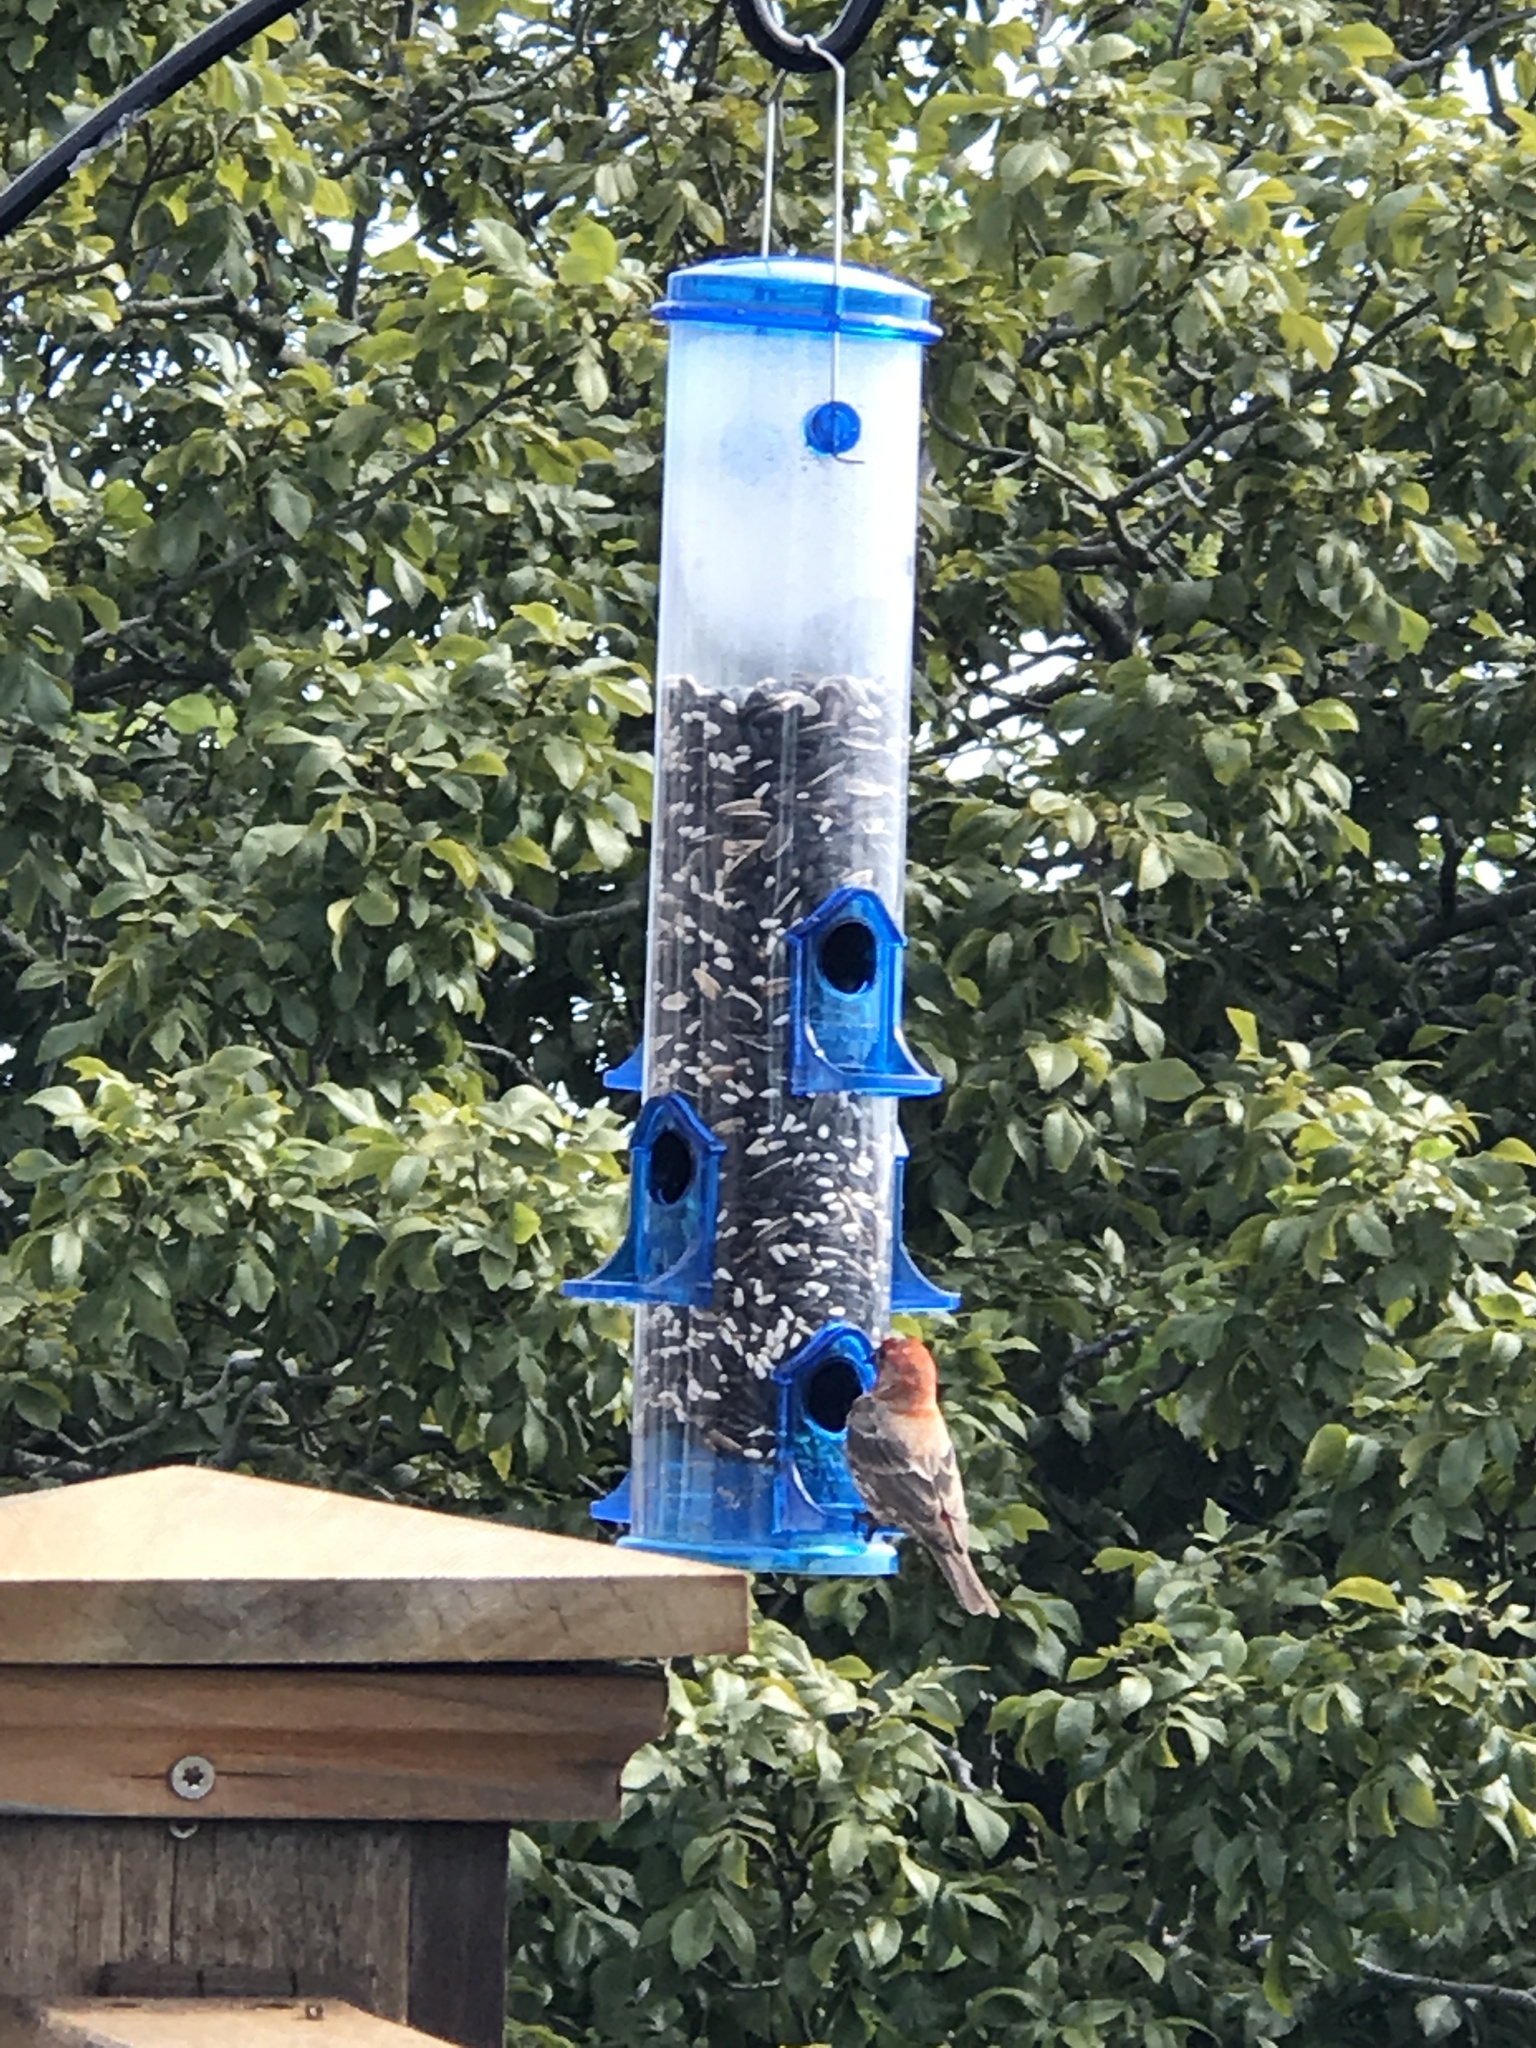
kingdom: Animalia
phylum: Chordata
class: Aves
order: Passeriformes
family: Fringillidae
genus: Haemorhous
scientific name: Haemorhous mexicanus
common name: House finch
